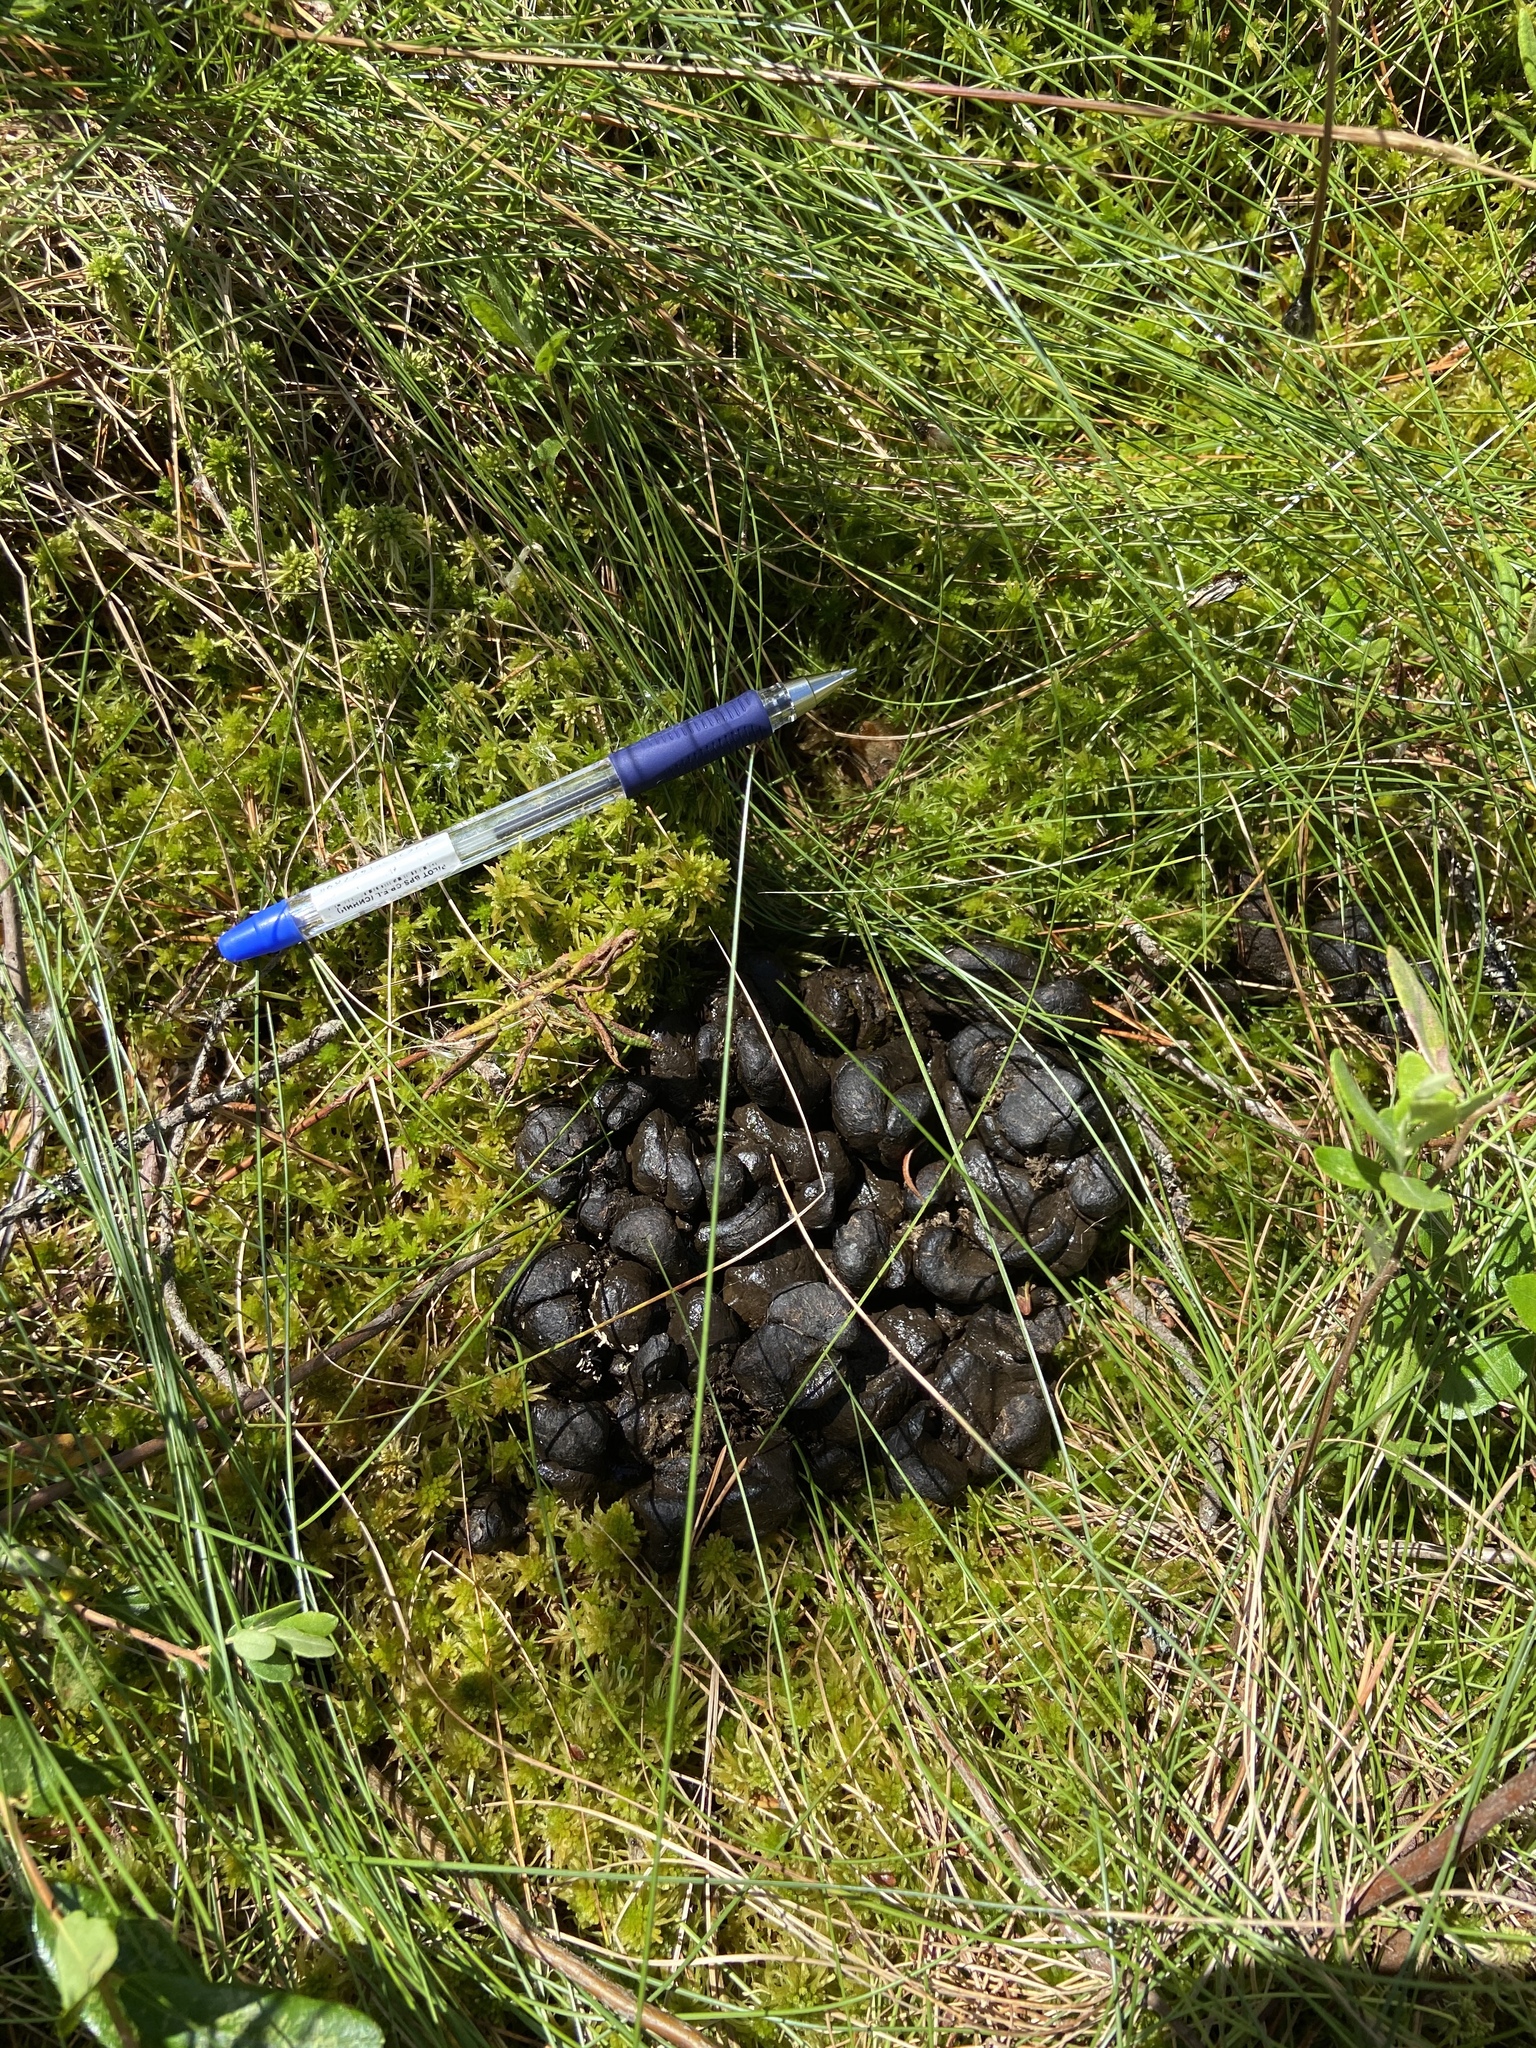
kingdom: Animalia
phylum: Chordata
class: Mammalia
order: Artiodactyla
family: Cervidae
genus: Alces
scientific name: Alces alces
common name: Moose
